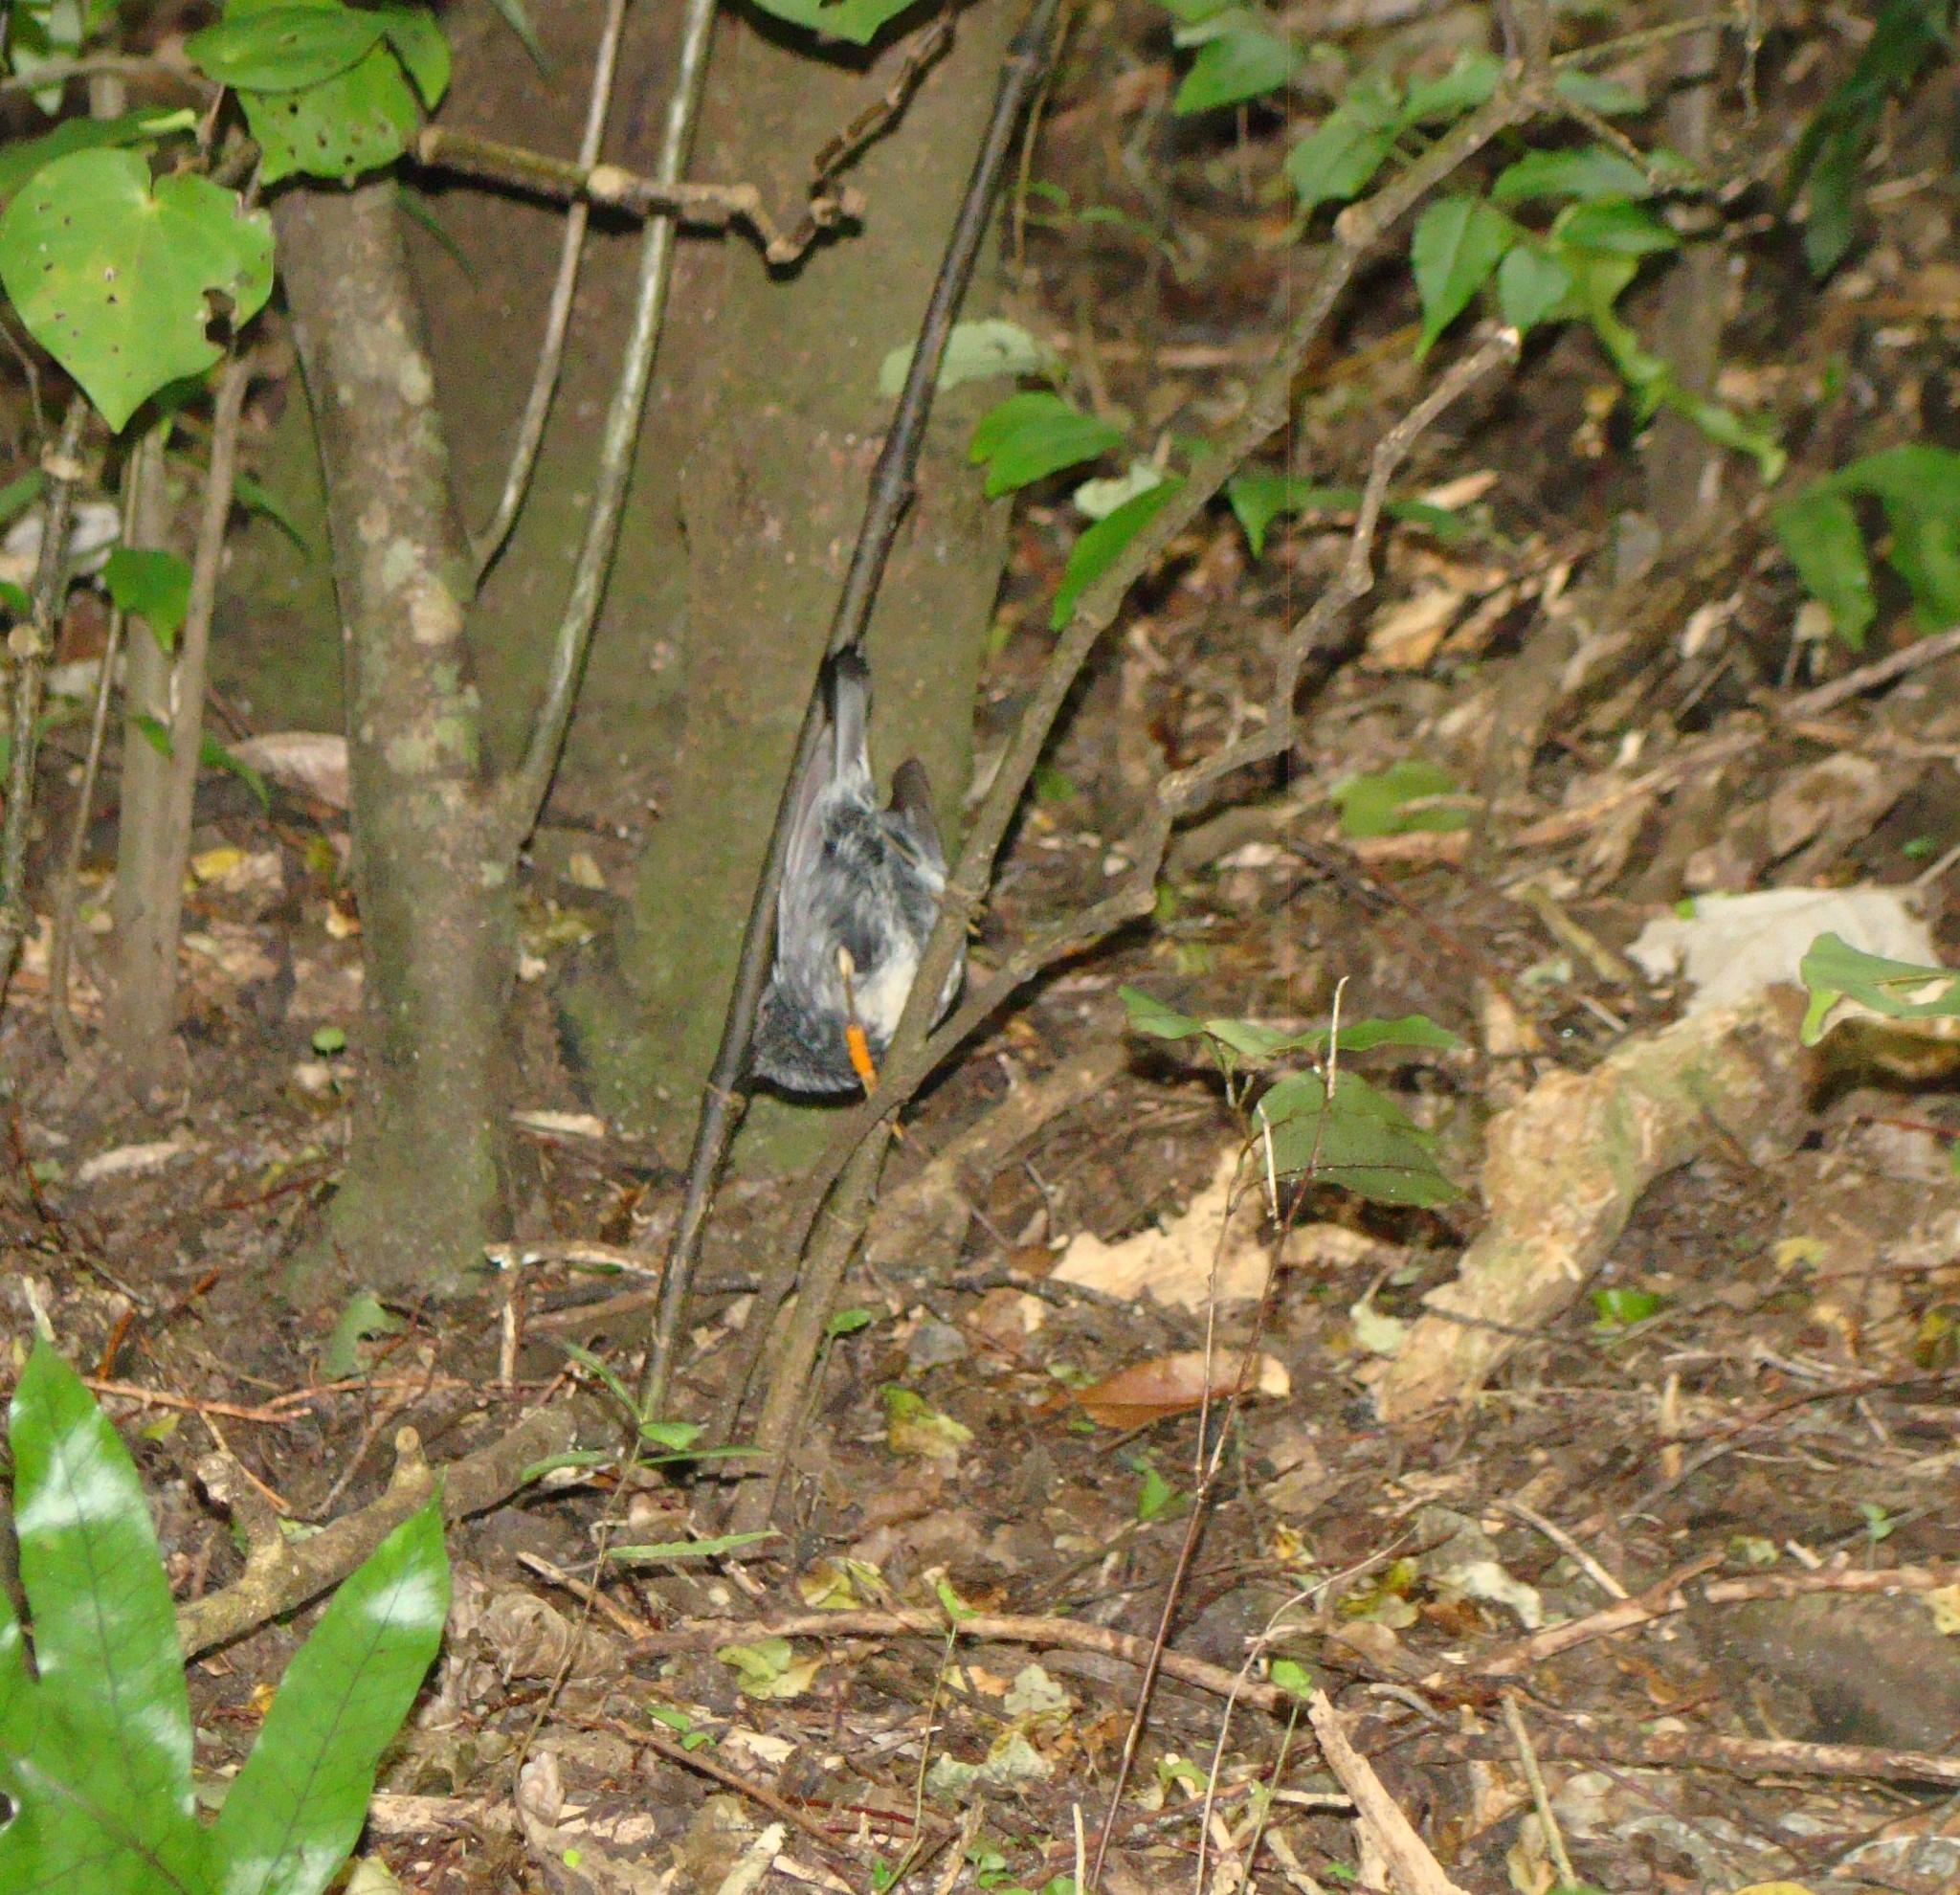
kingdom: Animalia
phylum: Chordata
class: Aves
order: Passeriformes
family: Petroicidae
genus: Petroica
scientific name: Petroica australis
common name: New zealand robin
